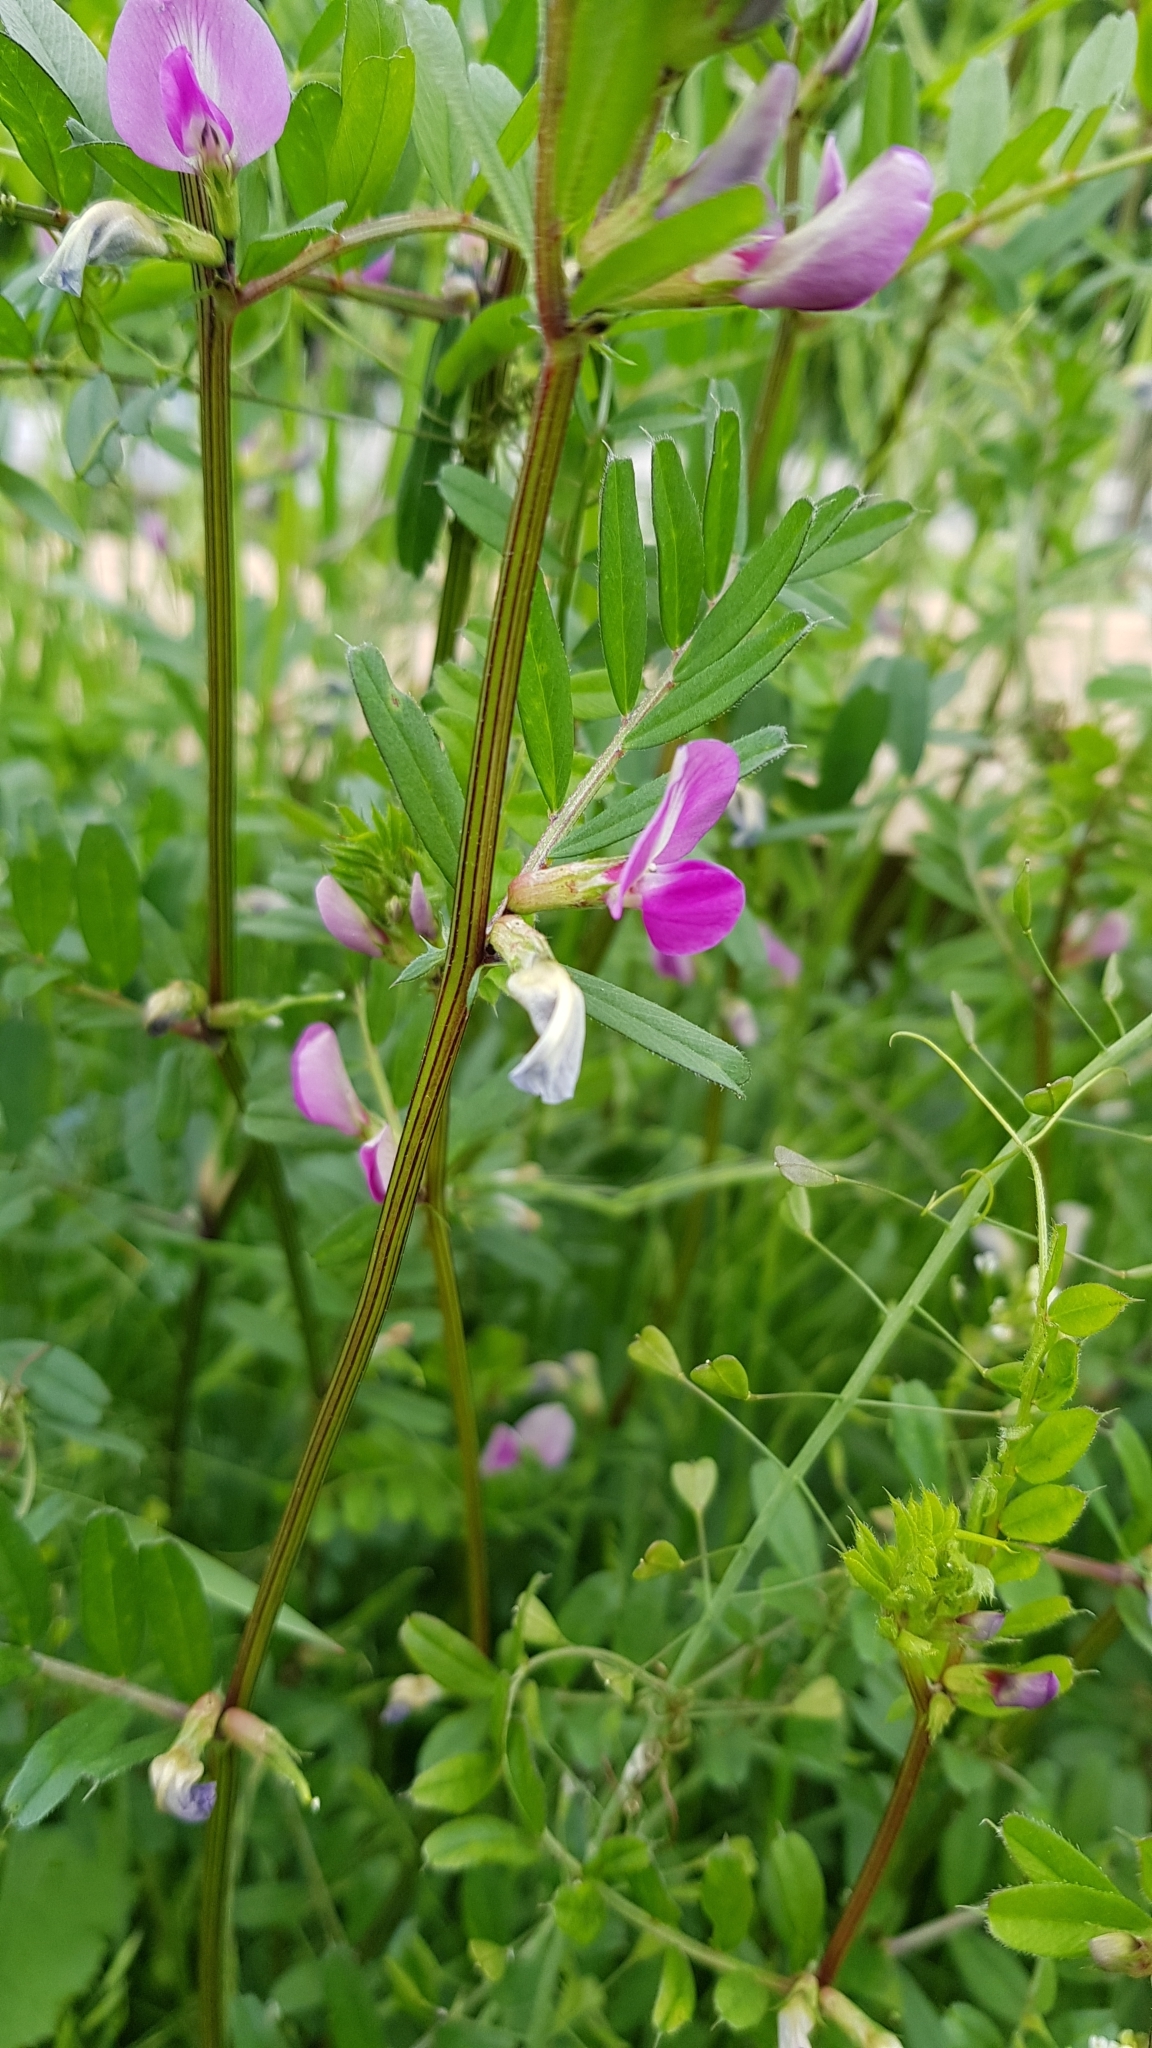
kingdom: Plantae
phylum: Tracheophyta
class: Magnoliopsida
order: Fabales
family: Fabaceae
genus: Vicia
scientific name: Vicia sativa
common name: Garden vetch
